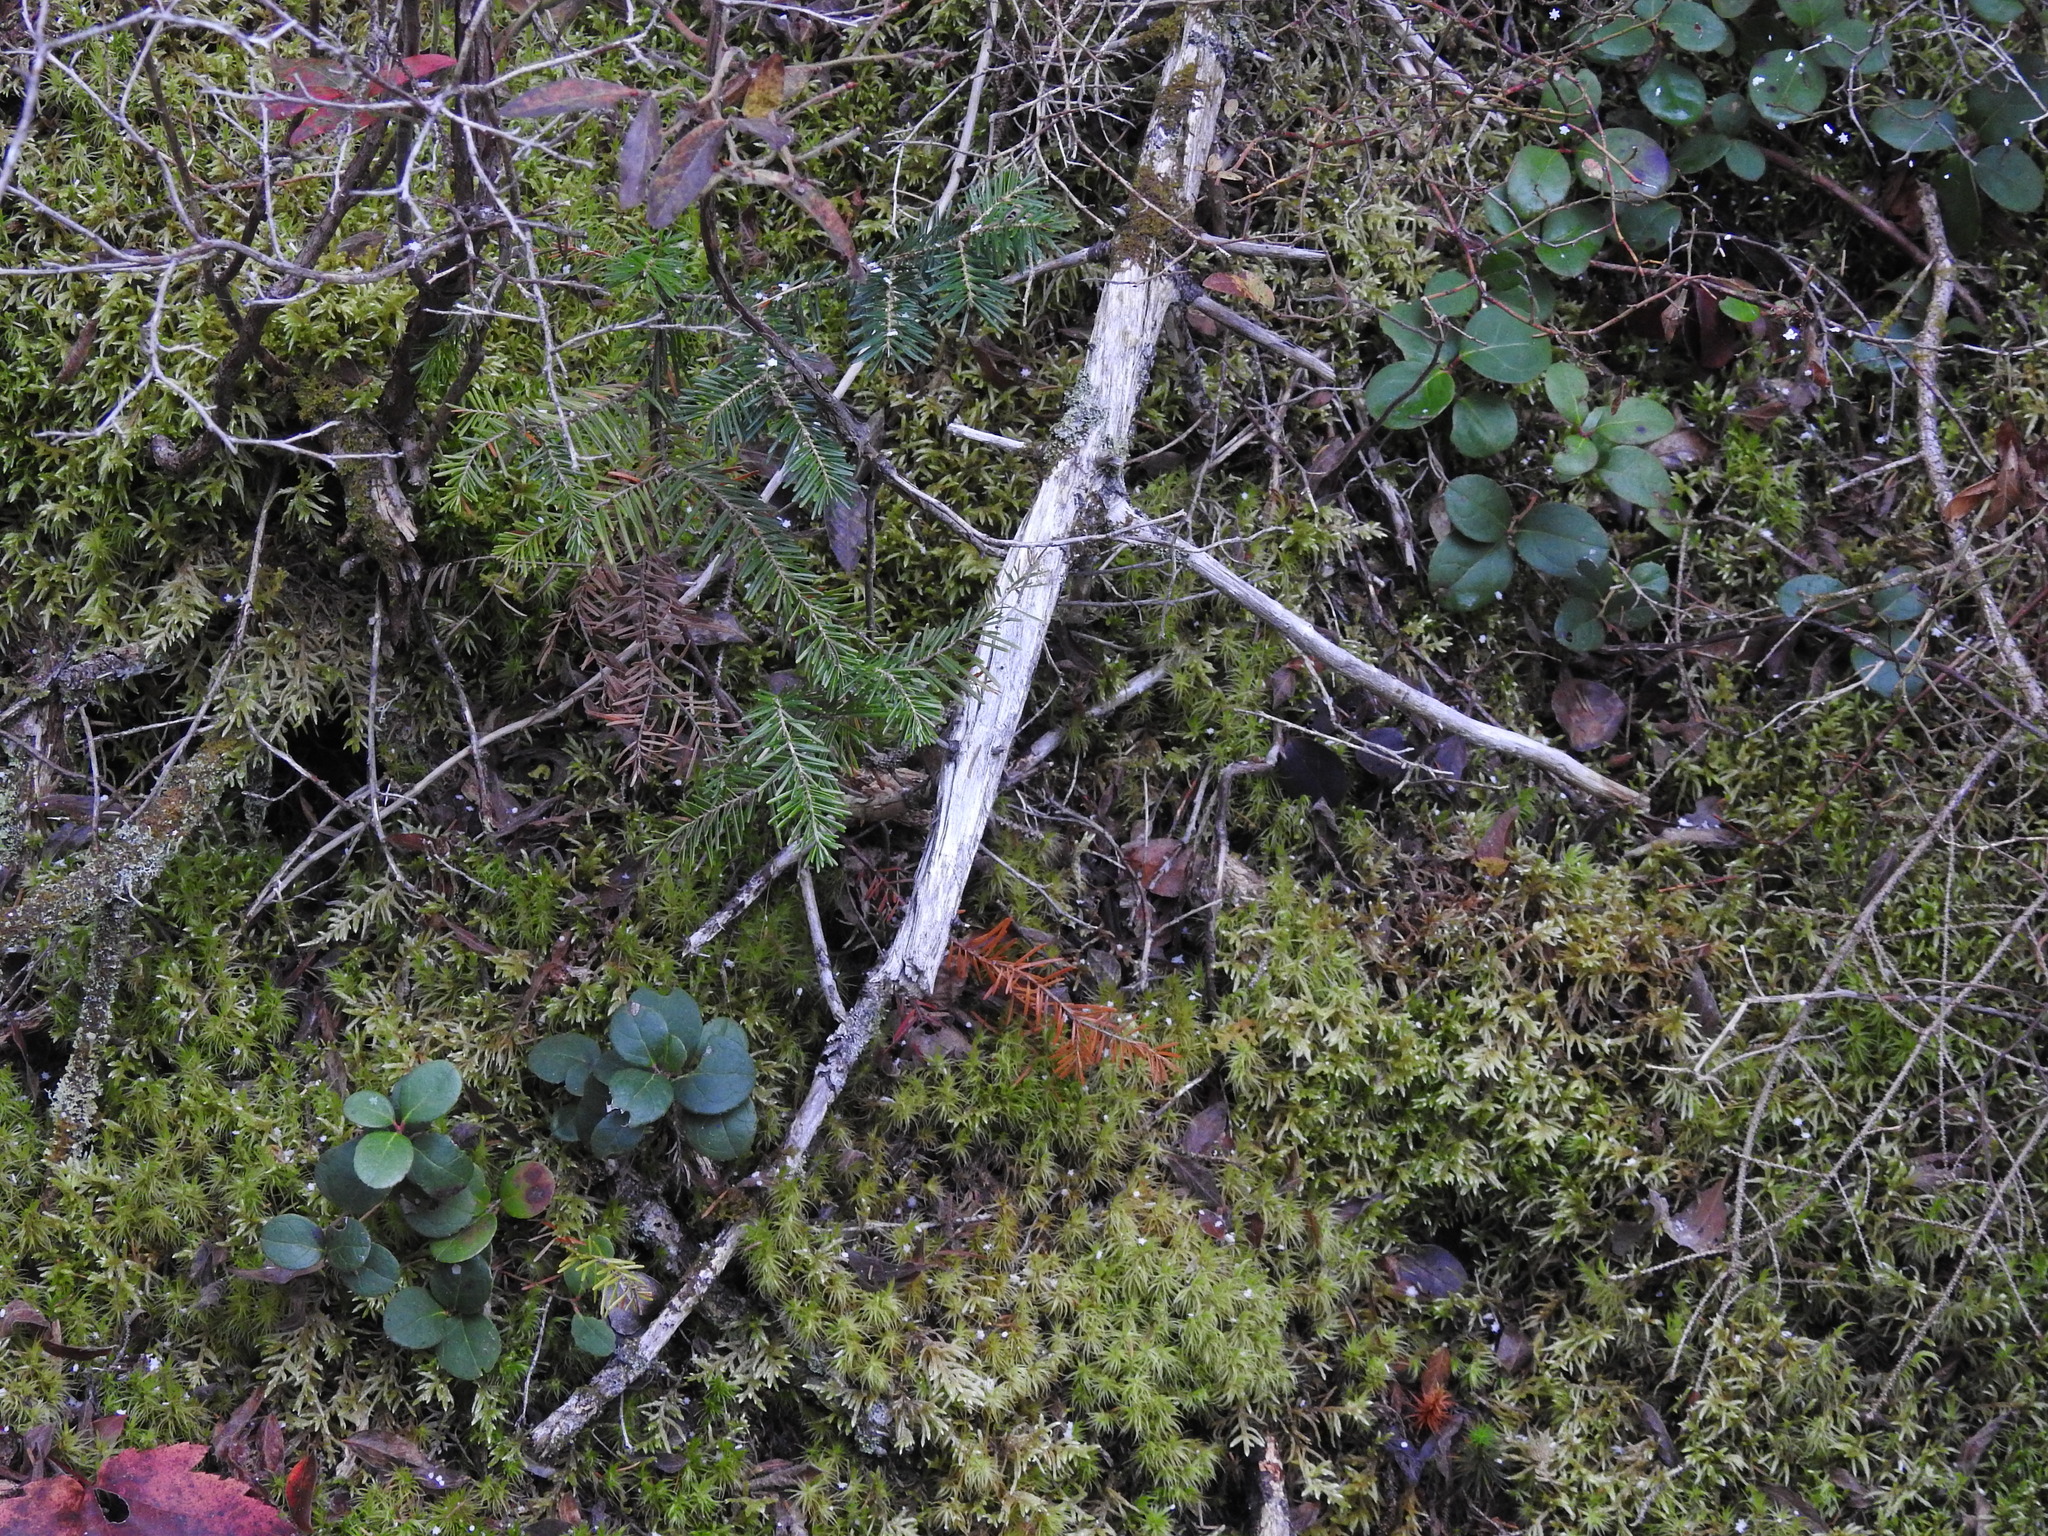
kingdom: Plantae
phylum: Tracheophyta
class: Magnoliopsida
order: Ericales
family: Ericaceae
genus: Gaultheria
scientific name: Gaultheria procumbens
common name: Checkerberry
